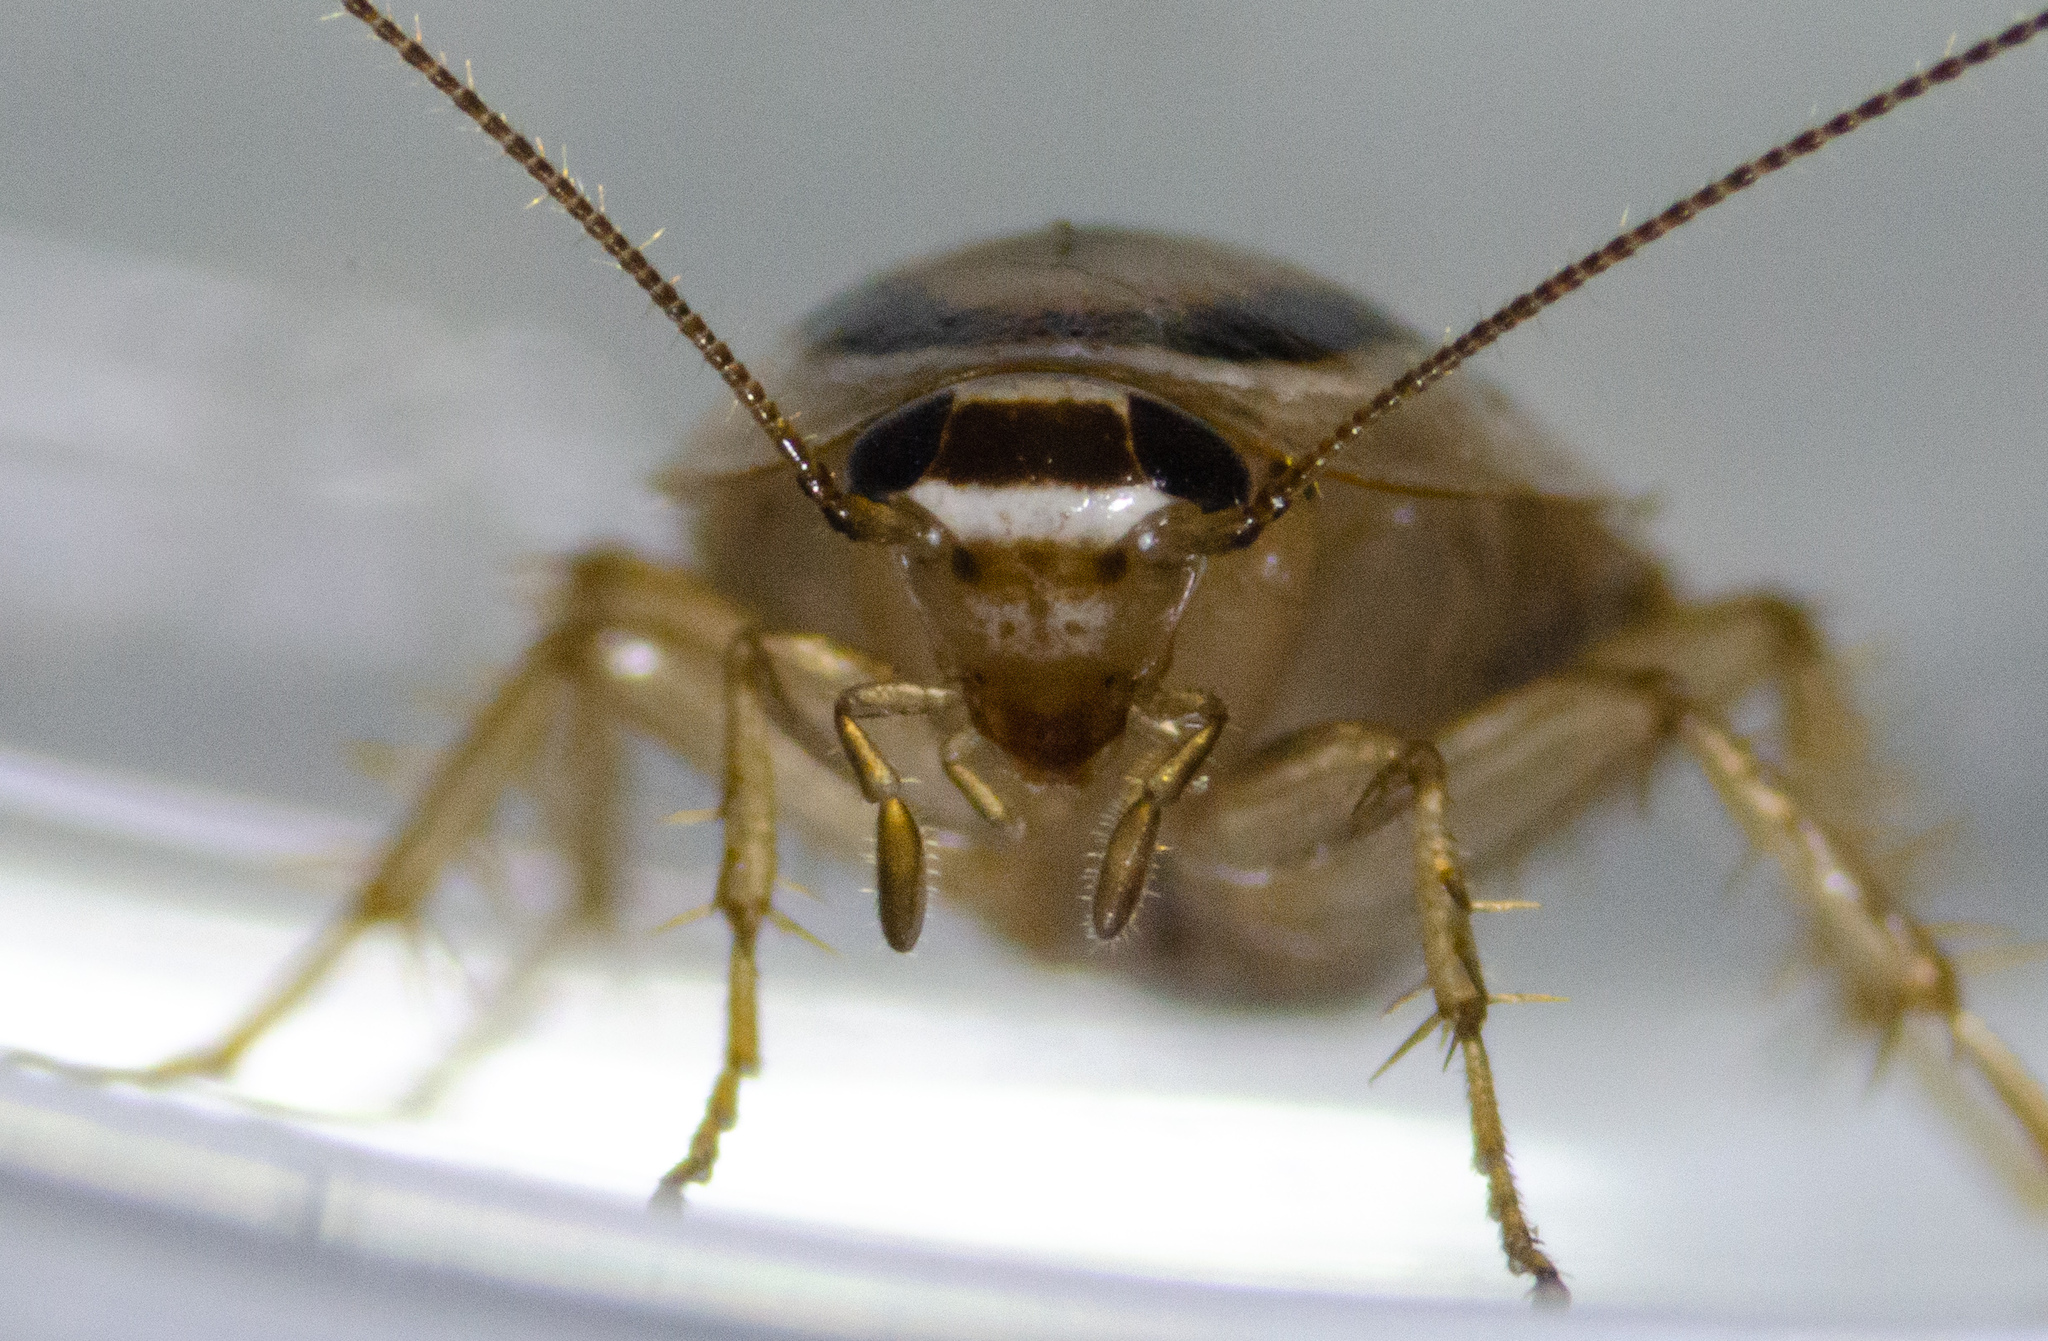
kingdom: Animalia
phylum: Arthropoda
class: Insecta
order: Blattodea
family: Ectobiidae
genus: Luridiblatta
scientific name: Luridiblatta trivittata
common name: Three-lined cockroach
